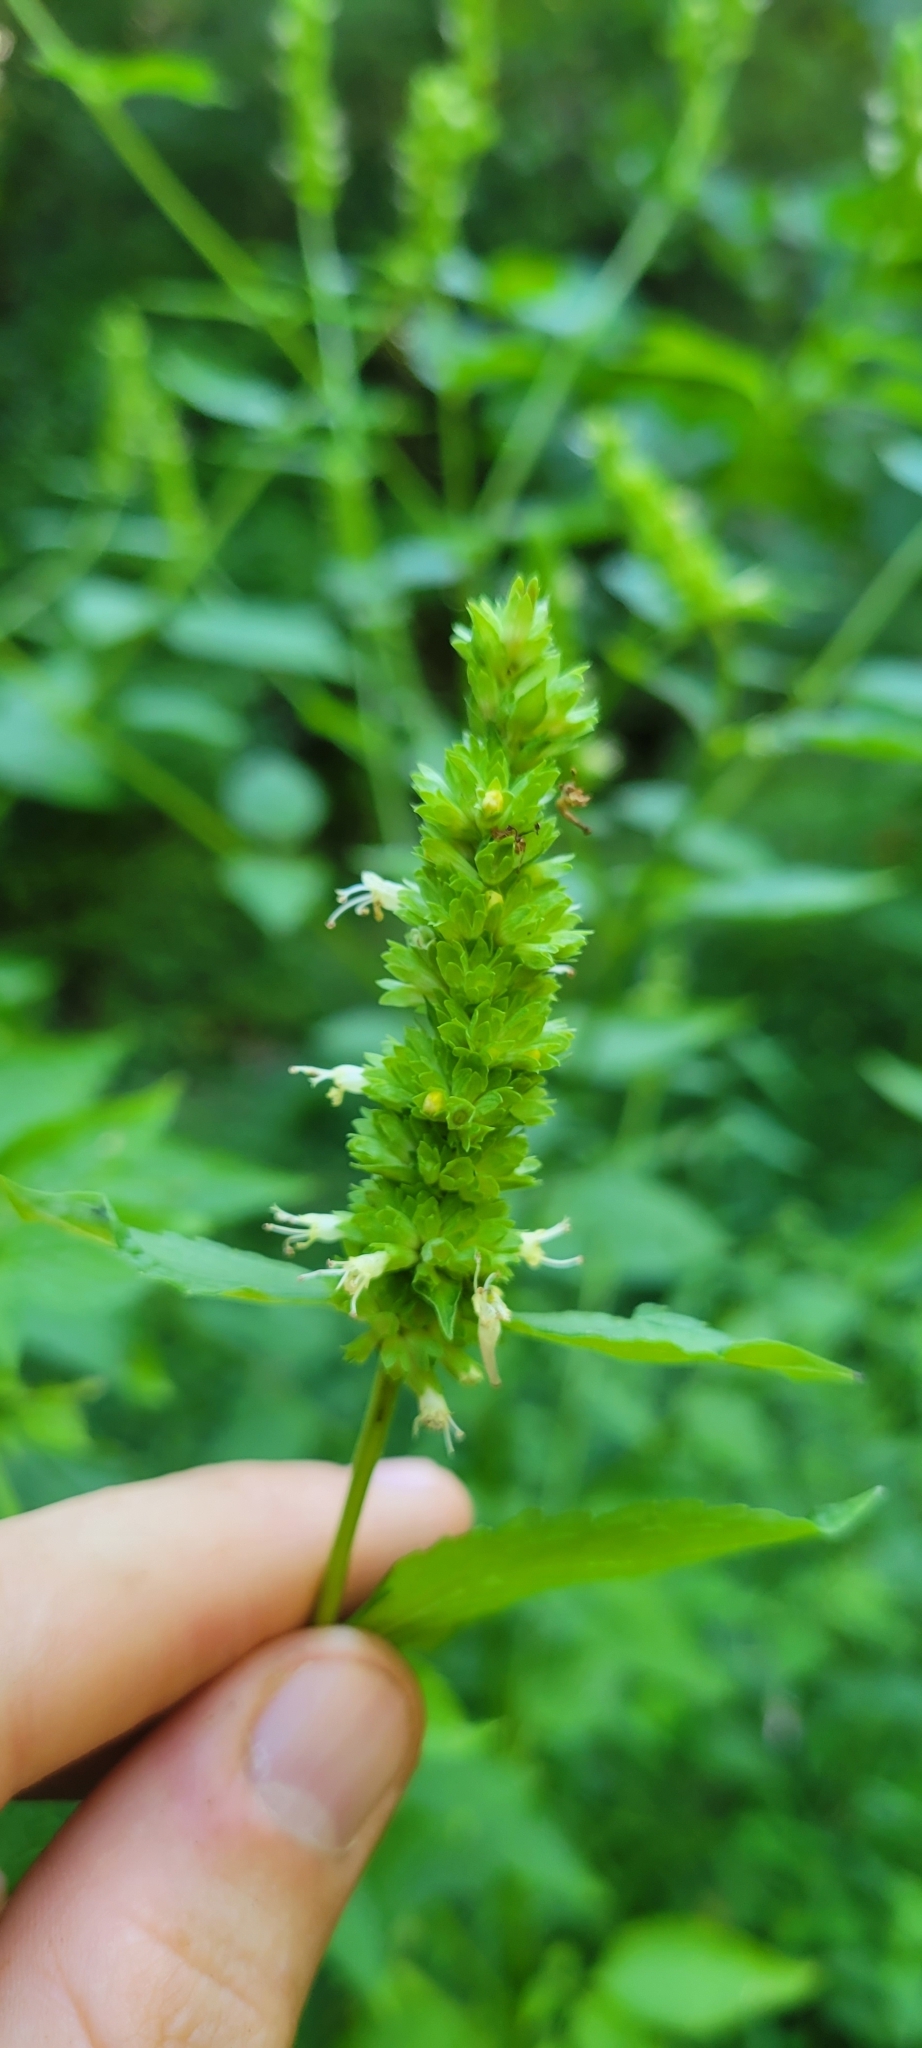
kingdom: Plantae
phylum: Tracheophyta
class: Magnoliopsida
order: Lamiales
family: Lamiaceae
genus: Agastache
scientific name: Agastache nepetoides
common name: Catnip giant hyssop
